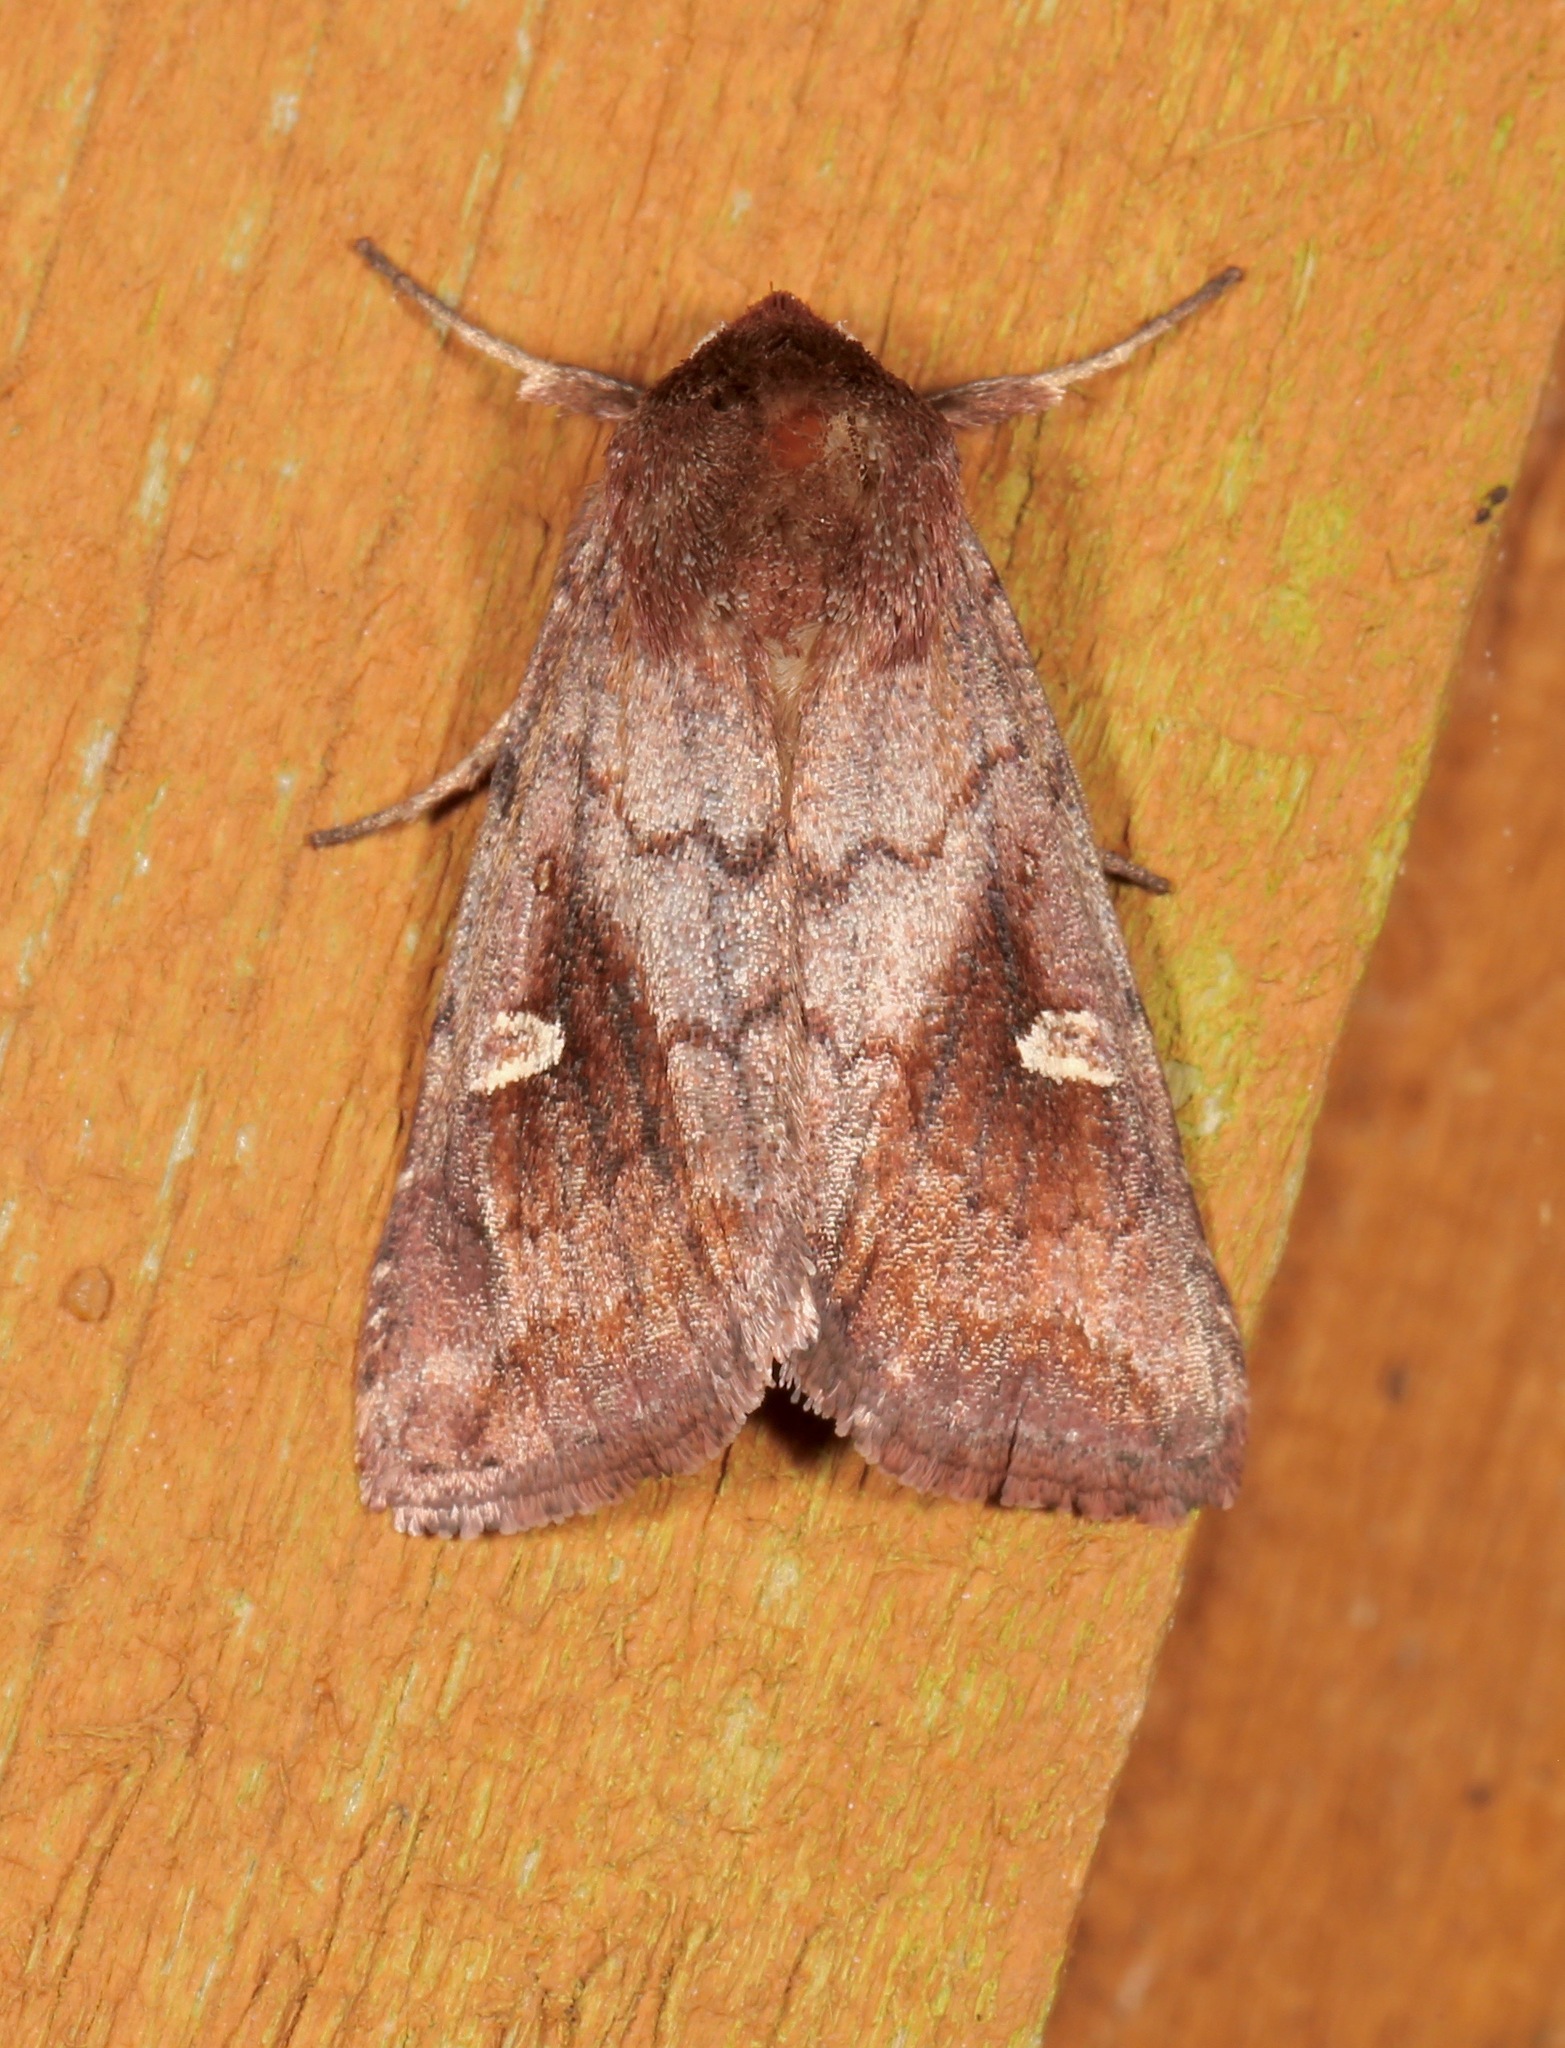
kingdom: Animalia
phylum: Arthropoda
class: Insecta
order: Lepidoptera
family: Noctuidae
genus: Iodopepla
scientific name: Iodopepla ualbum
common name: White-eyed borer moth
